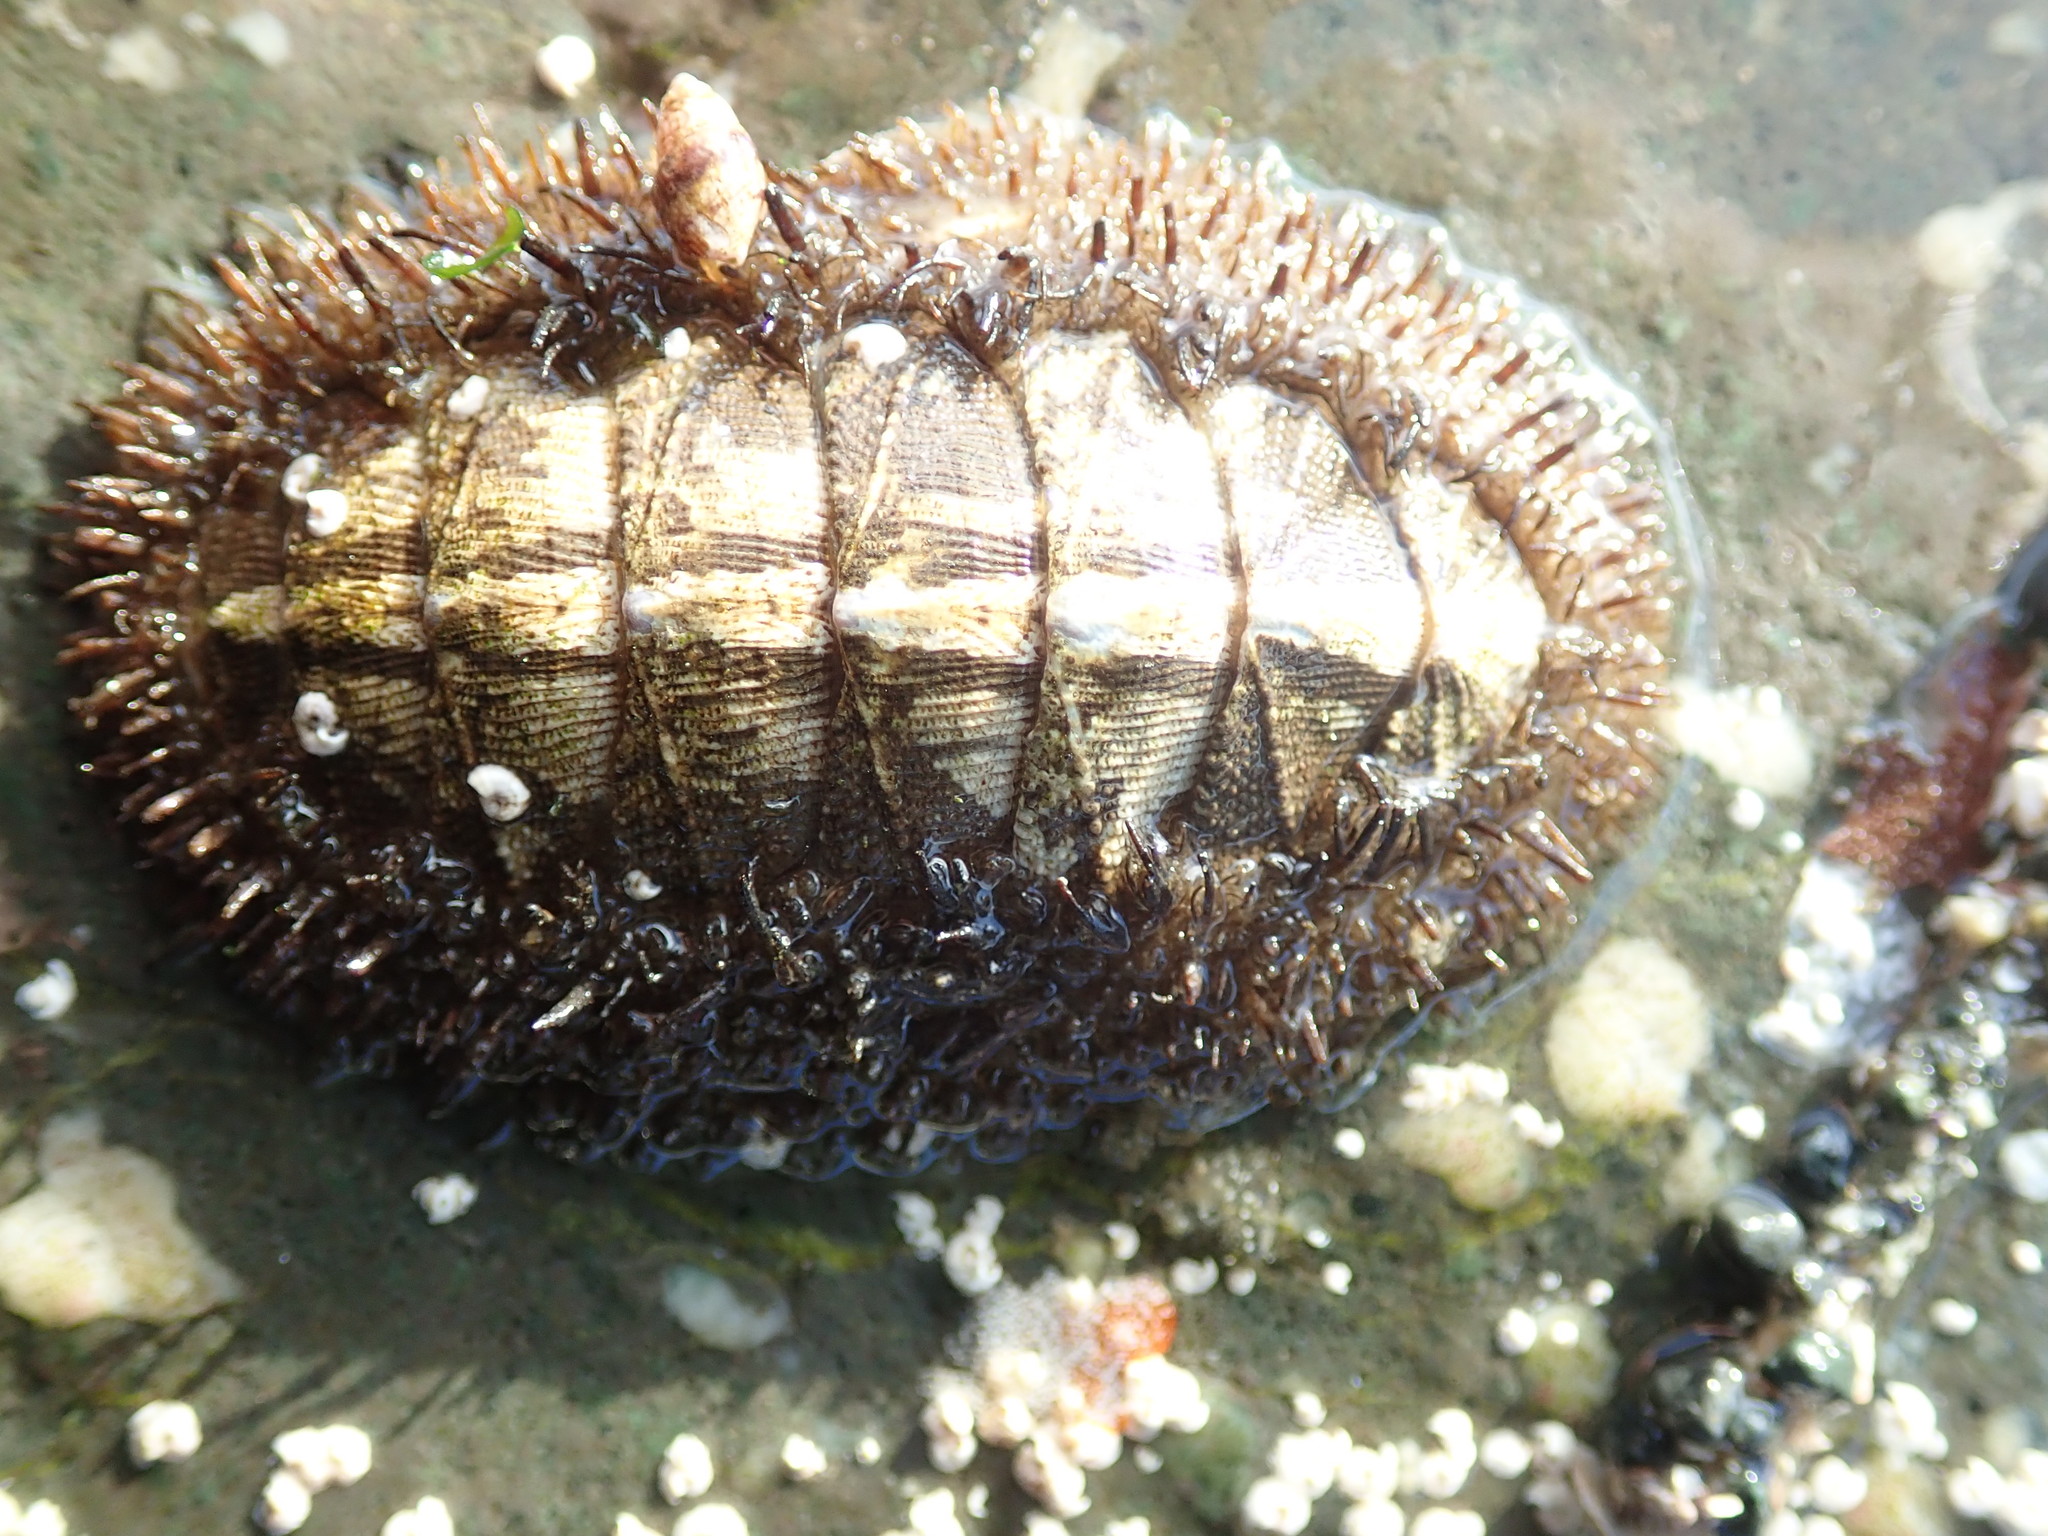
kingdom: Animalia
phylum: Mollusca
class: Polyplacophora
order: Chitonida
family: Mopaliidae
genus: Mopalia
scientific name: Mopalia muscosa
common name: Mossy chiton
